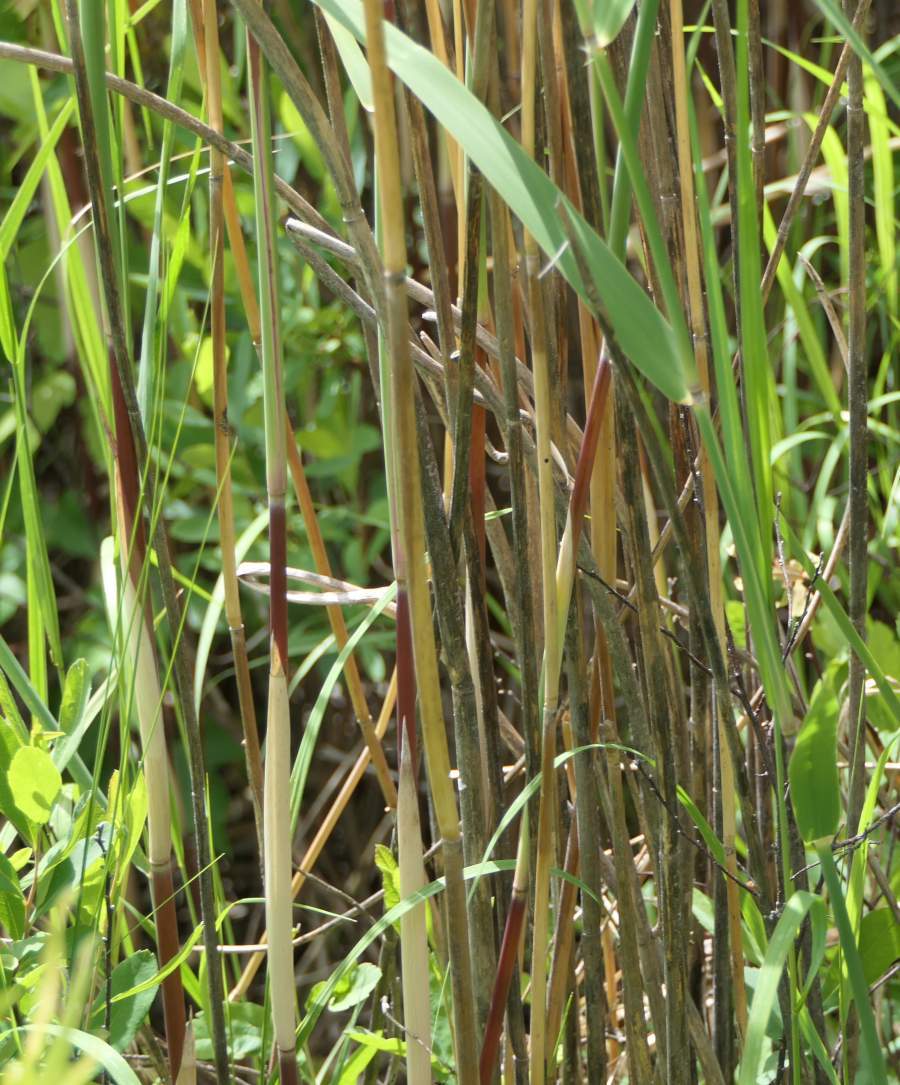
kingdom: Plantae
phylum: Tracheophyta
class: Liliopsida
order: Poales
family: Poaceae
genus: Phragmites
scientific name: Phragmites australis
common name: Common reed
